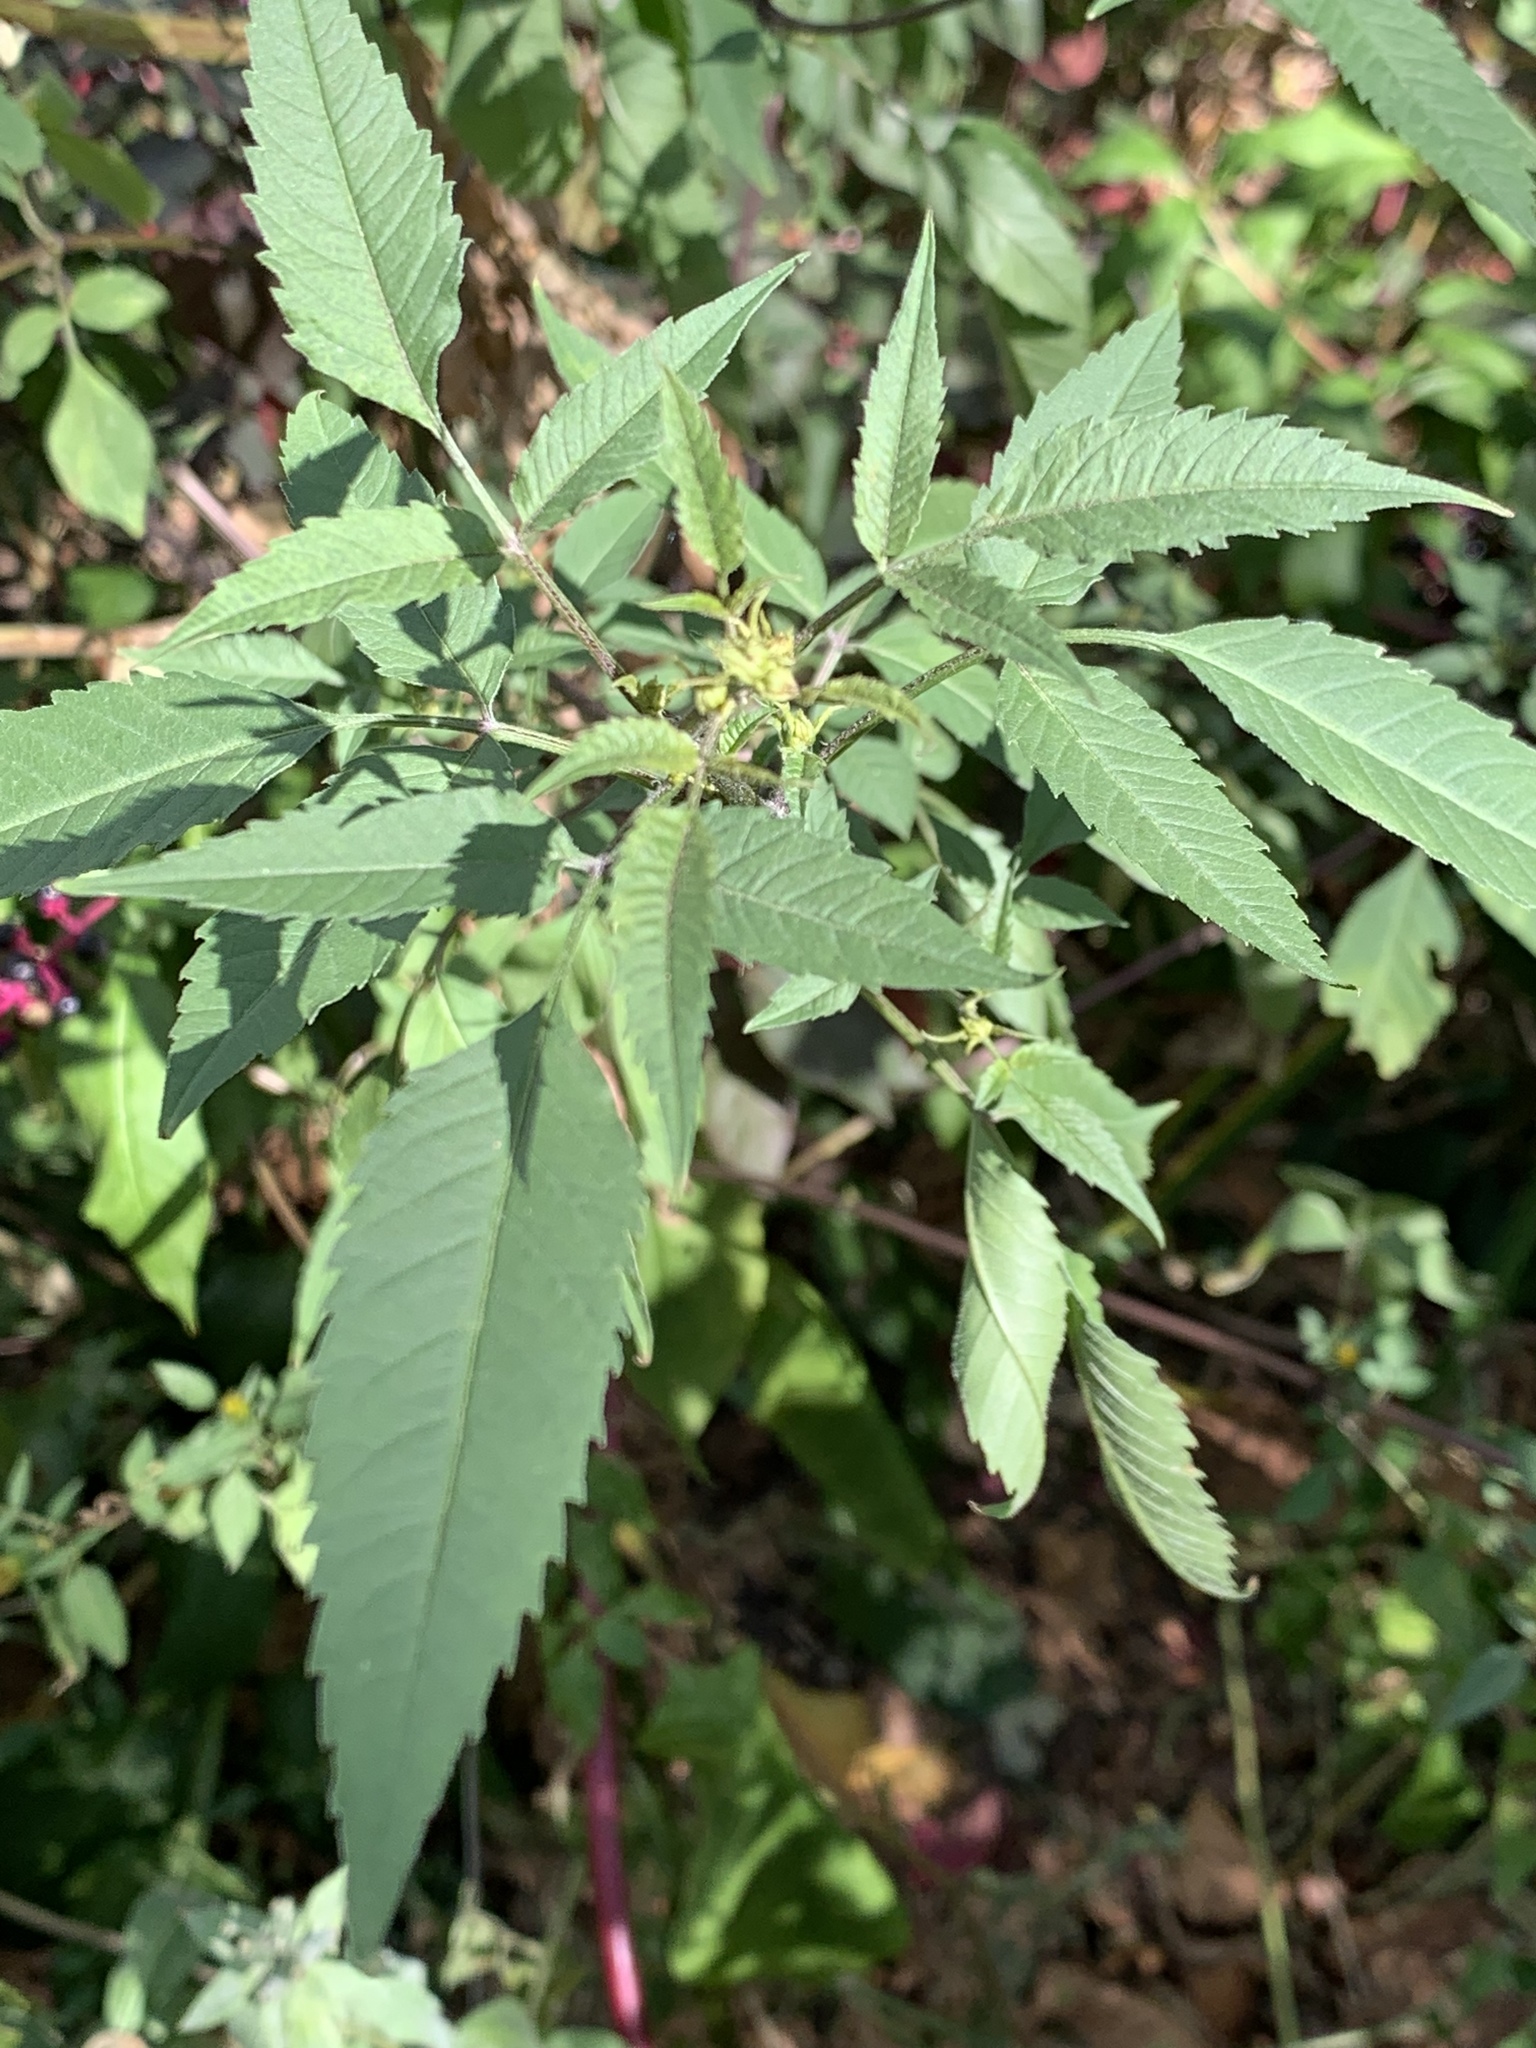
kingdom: Plantae
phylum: Tracheophyta
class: Magnoliopsida
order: Asterales
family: Asteraceae
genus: Bidens
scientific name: Bidens frondosa
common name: Beggarticks
